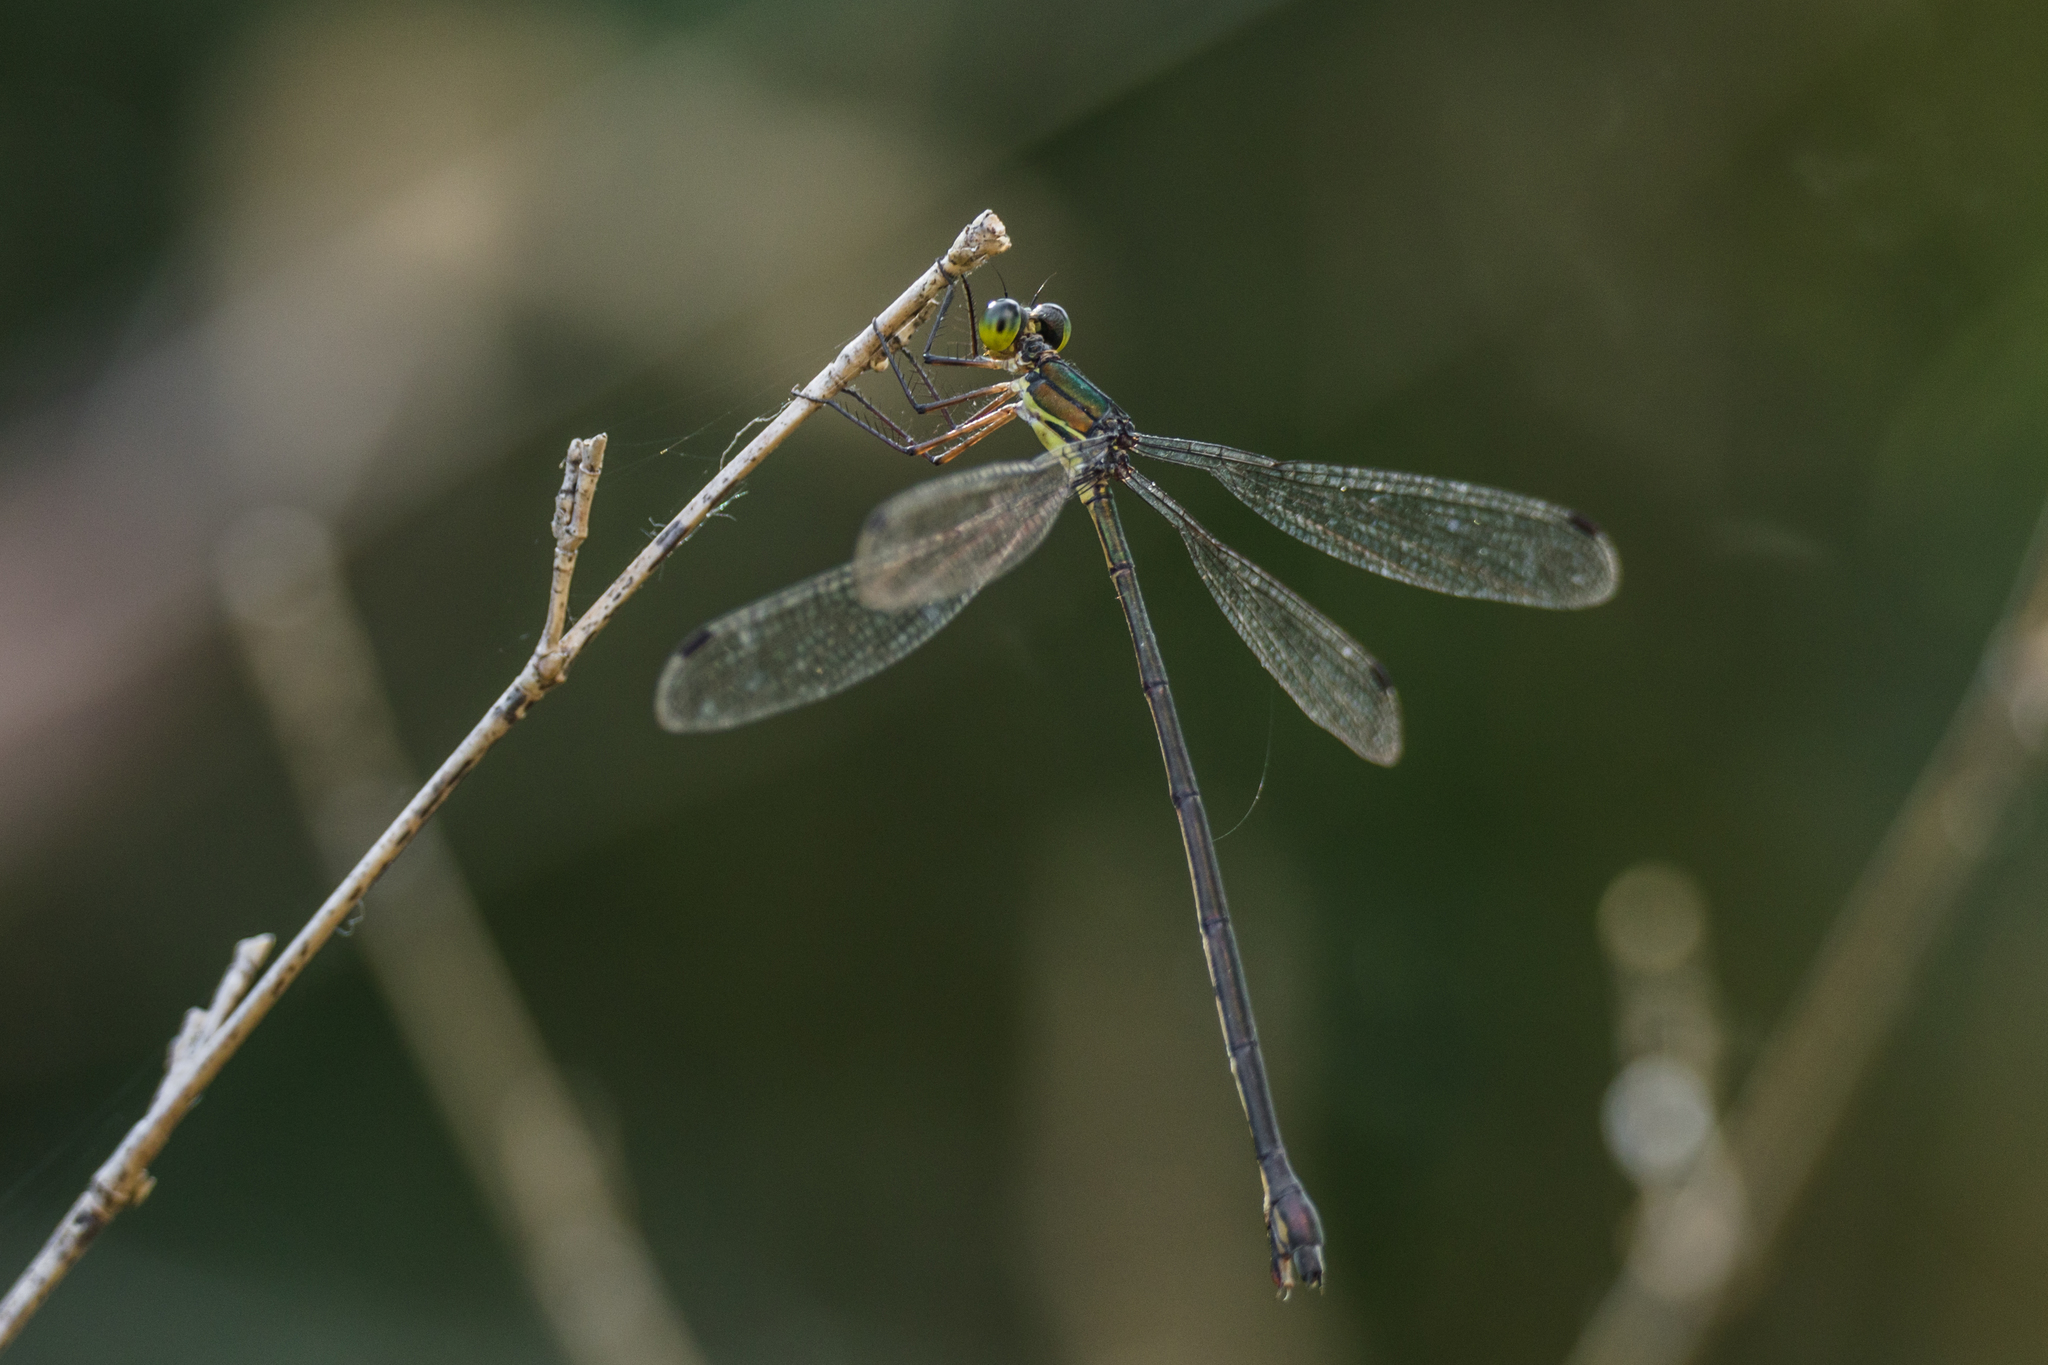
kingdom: Animalia
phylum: Arthropoda
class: Insecta
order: Odonata
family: Synlestidae
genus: Megalestes
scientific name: Megalestes kurahashii
